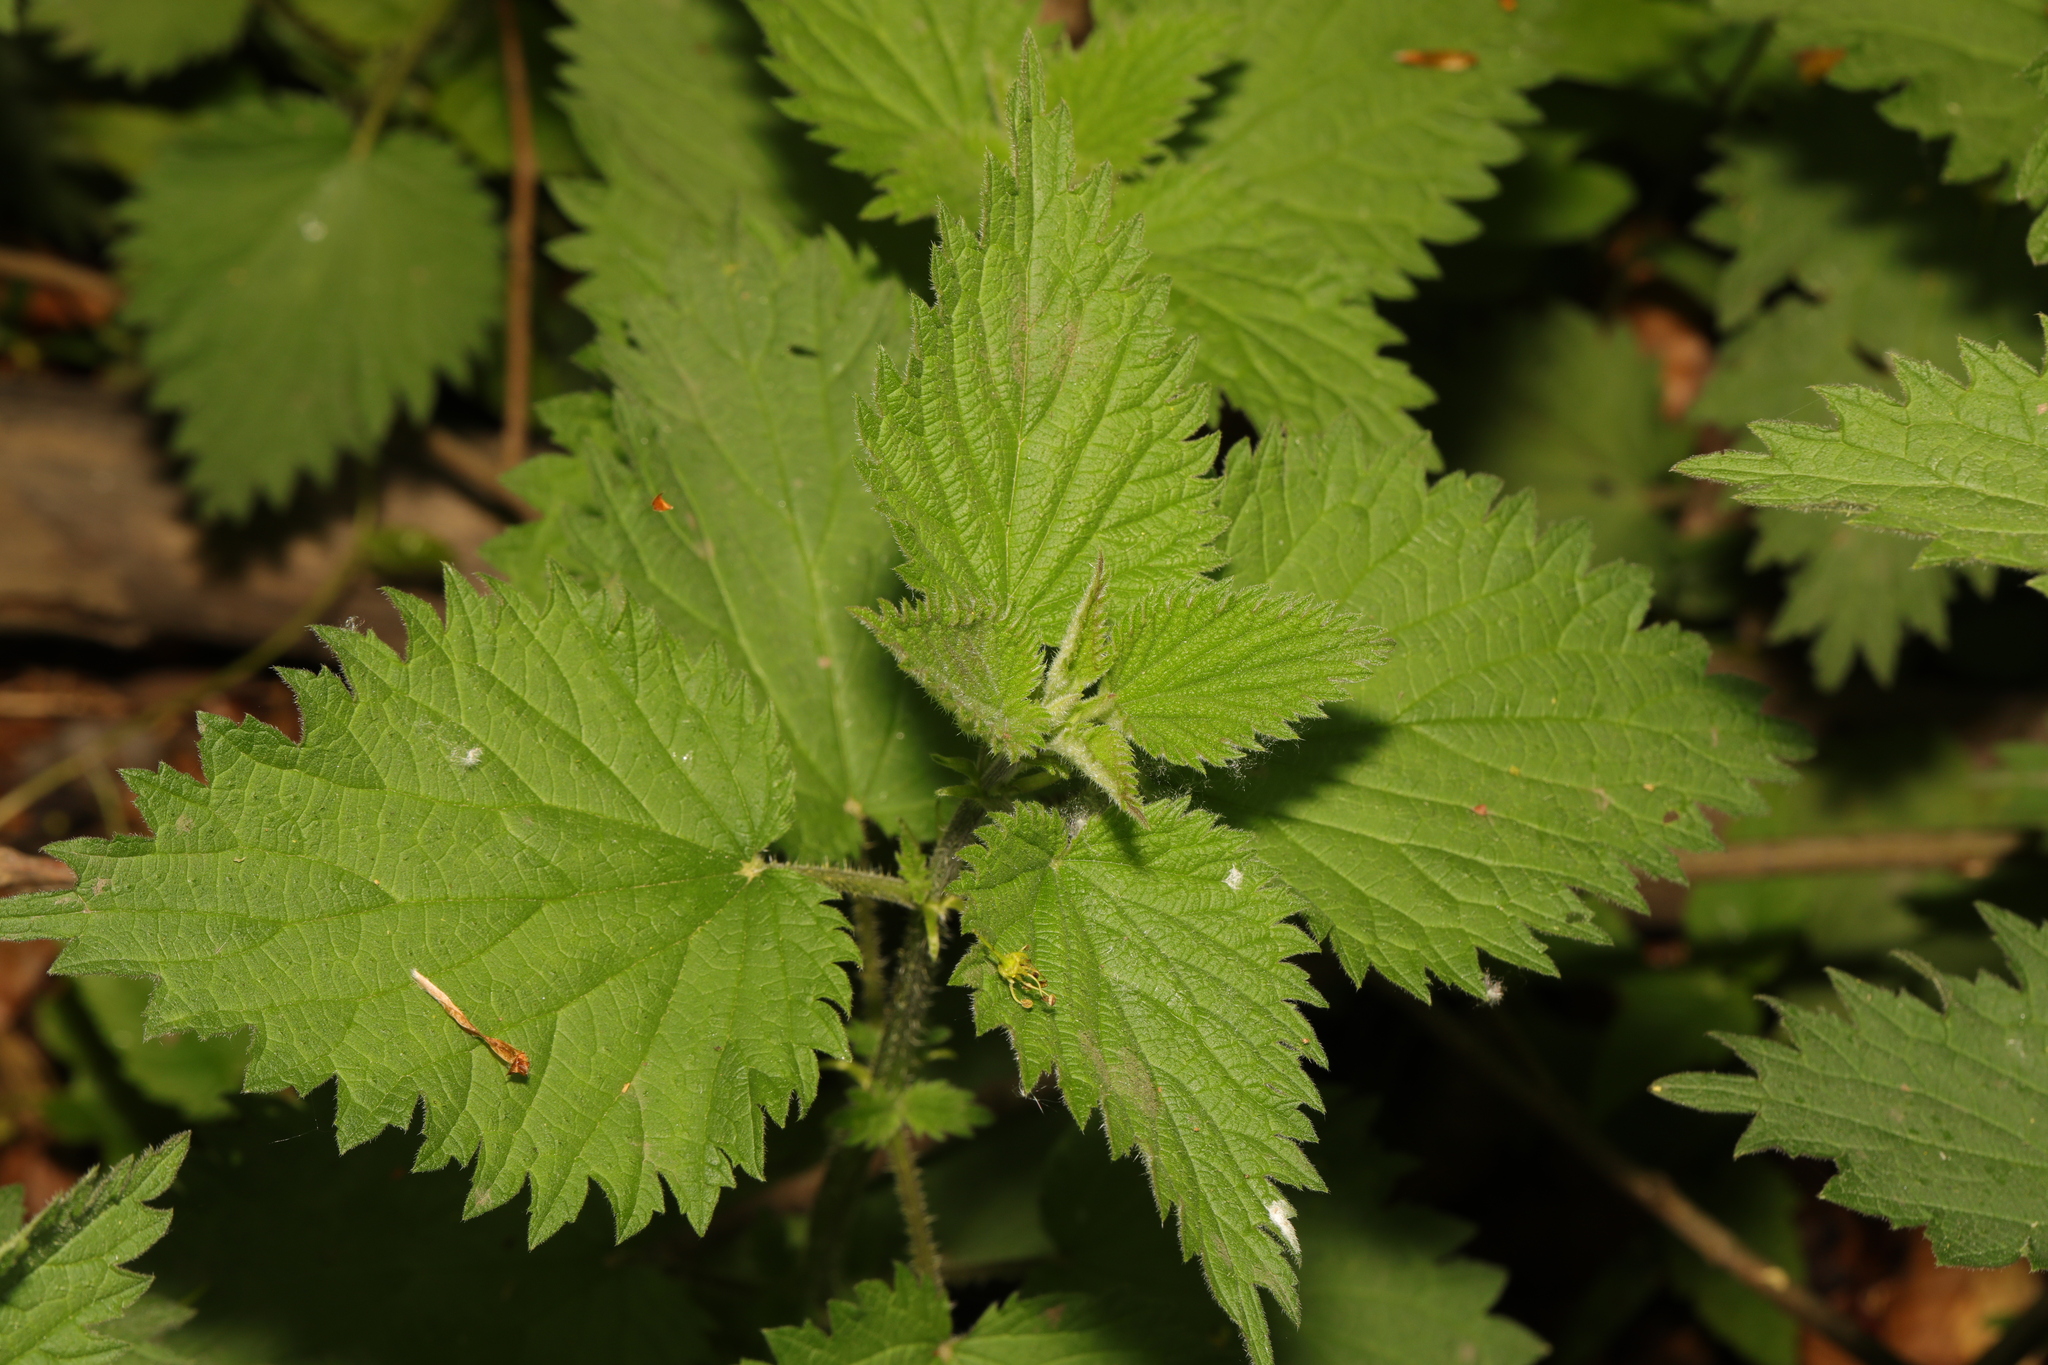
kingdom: Plantae
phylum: Tracheophyta
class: Magnoliopsida
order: Rosales
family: Urticaceae
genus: Urtica
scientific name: Urtica dioica
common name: Common nettle
